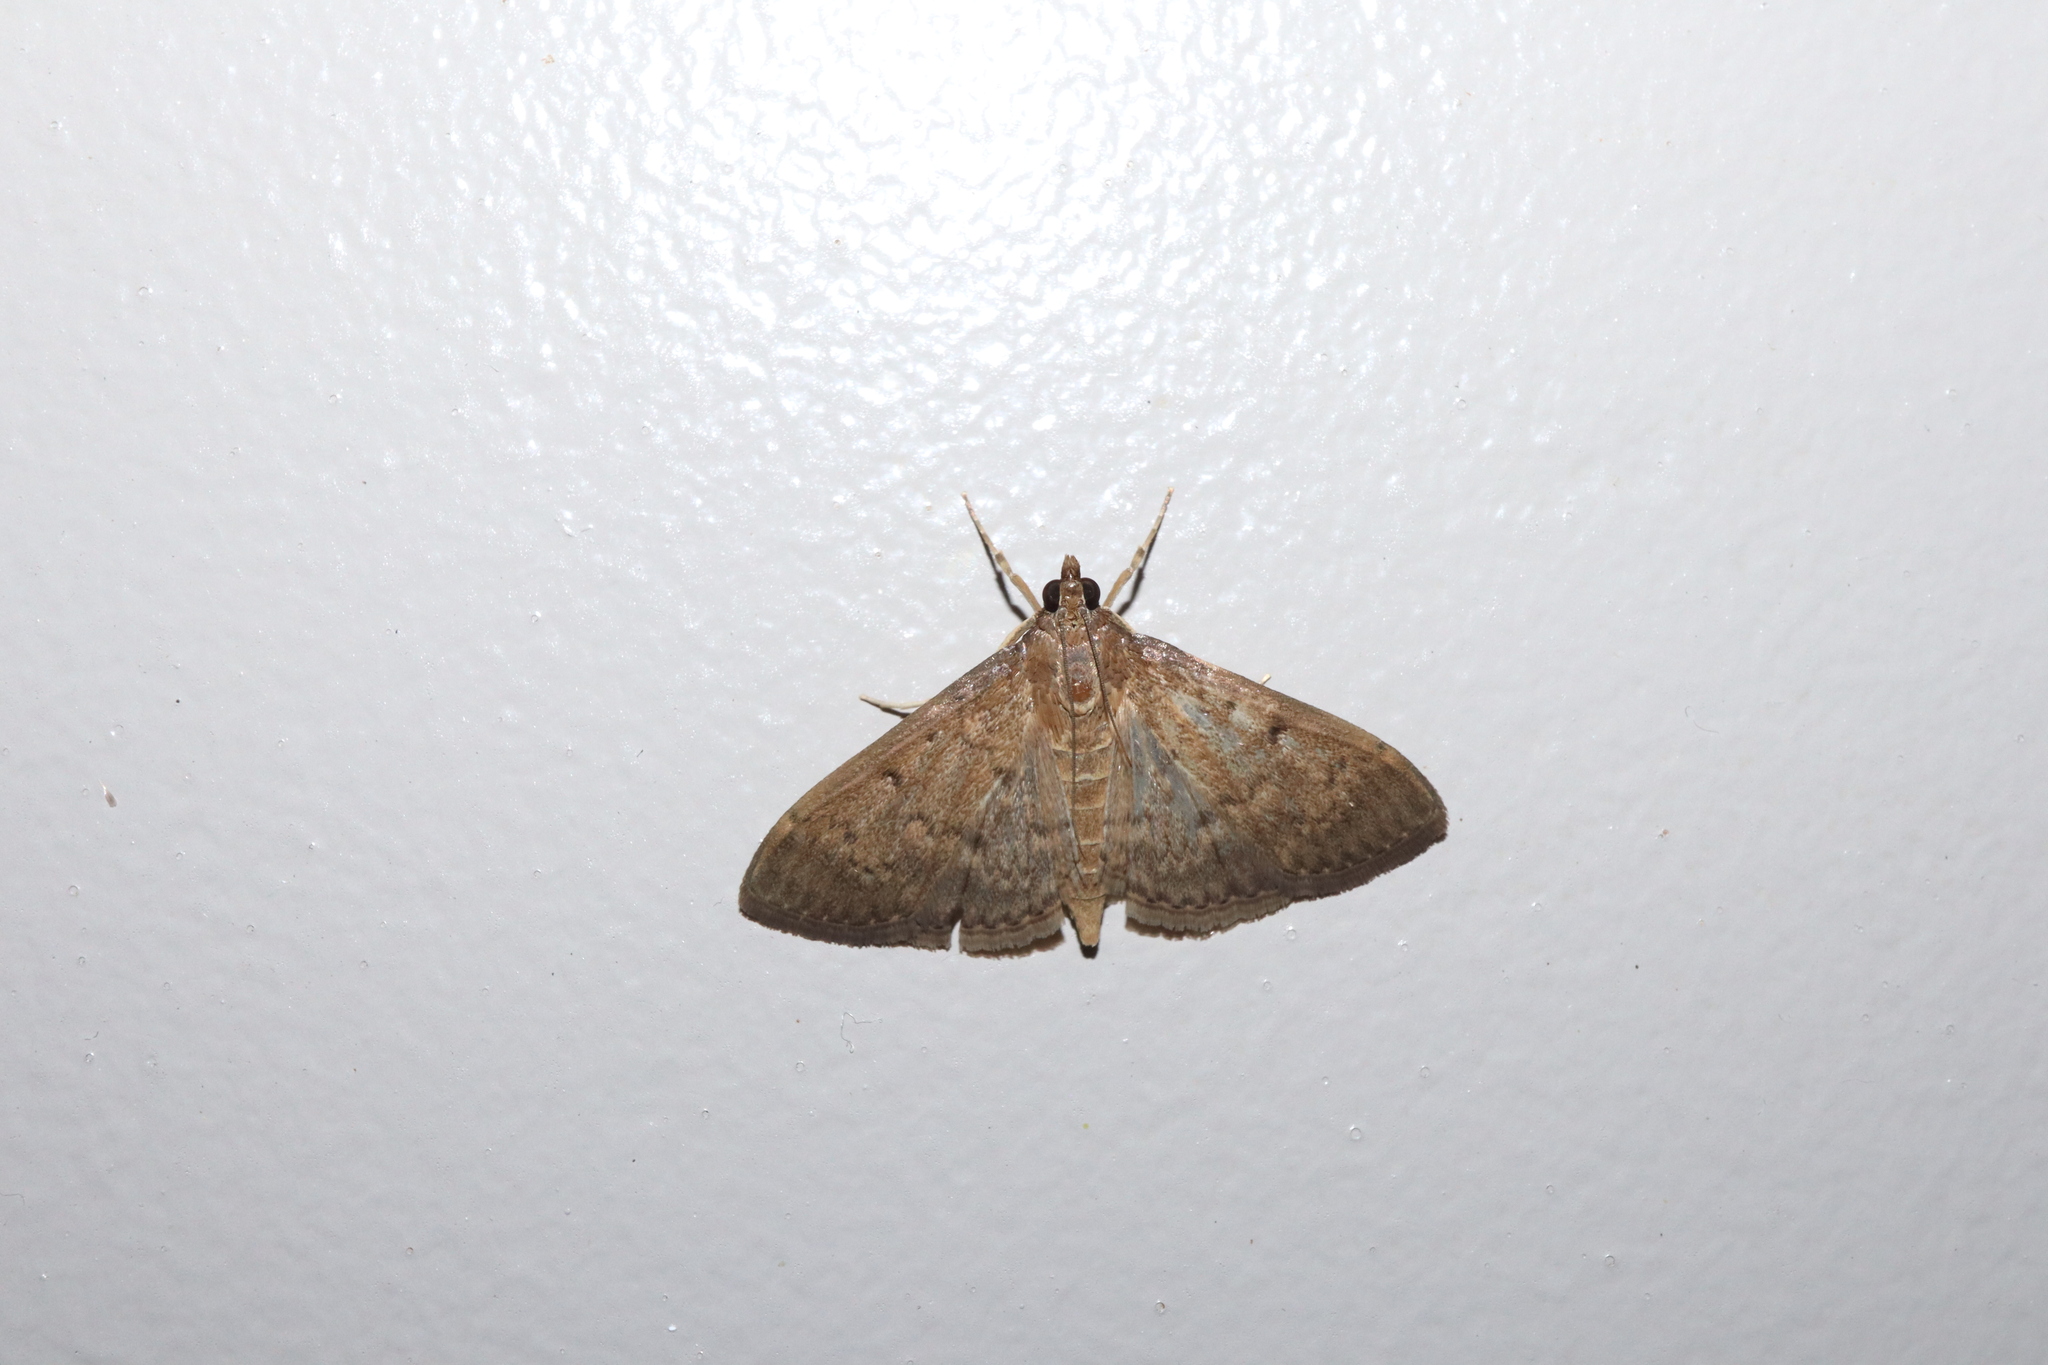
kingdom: Animalia
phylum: Arthropoda
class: Insecta
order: Lepidoptera
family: Crambidae
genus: Herpetogramma
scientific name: Herpetogramma licarsisalis
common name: Grass webworm
